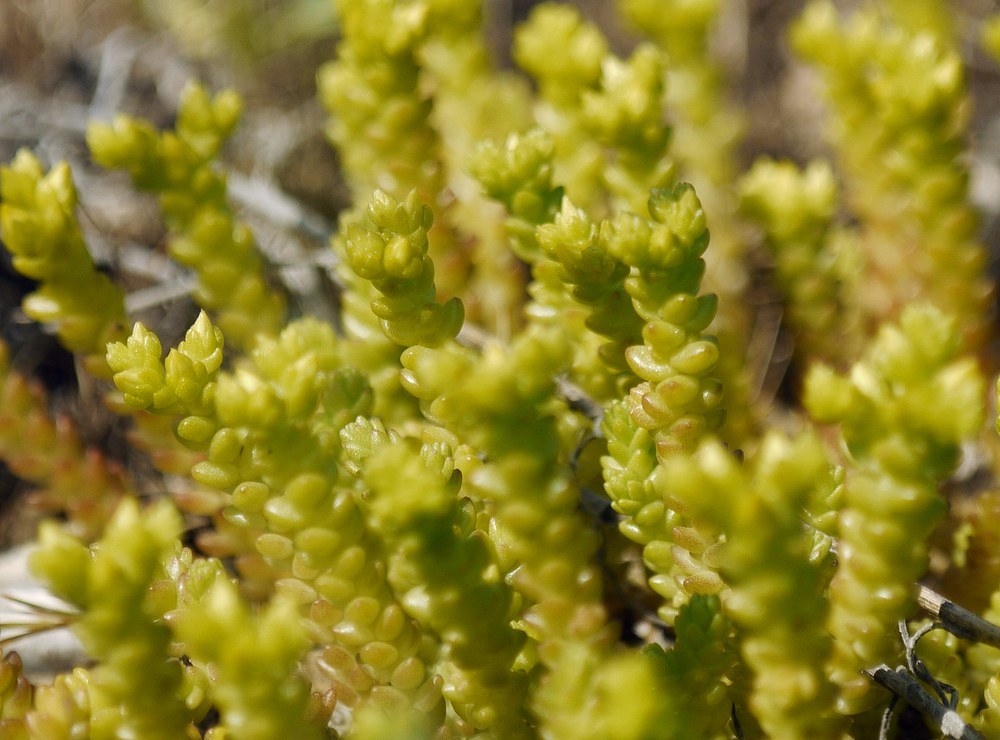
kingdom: Plantae
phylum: Tracheophyta
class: Magnoliopsida
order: Saxifragales
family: Crassulaceae
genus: Sedum
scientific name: Sedum acre
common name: Biting stonecrop
